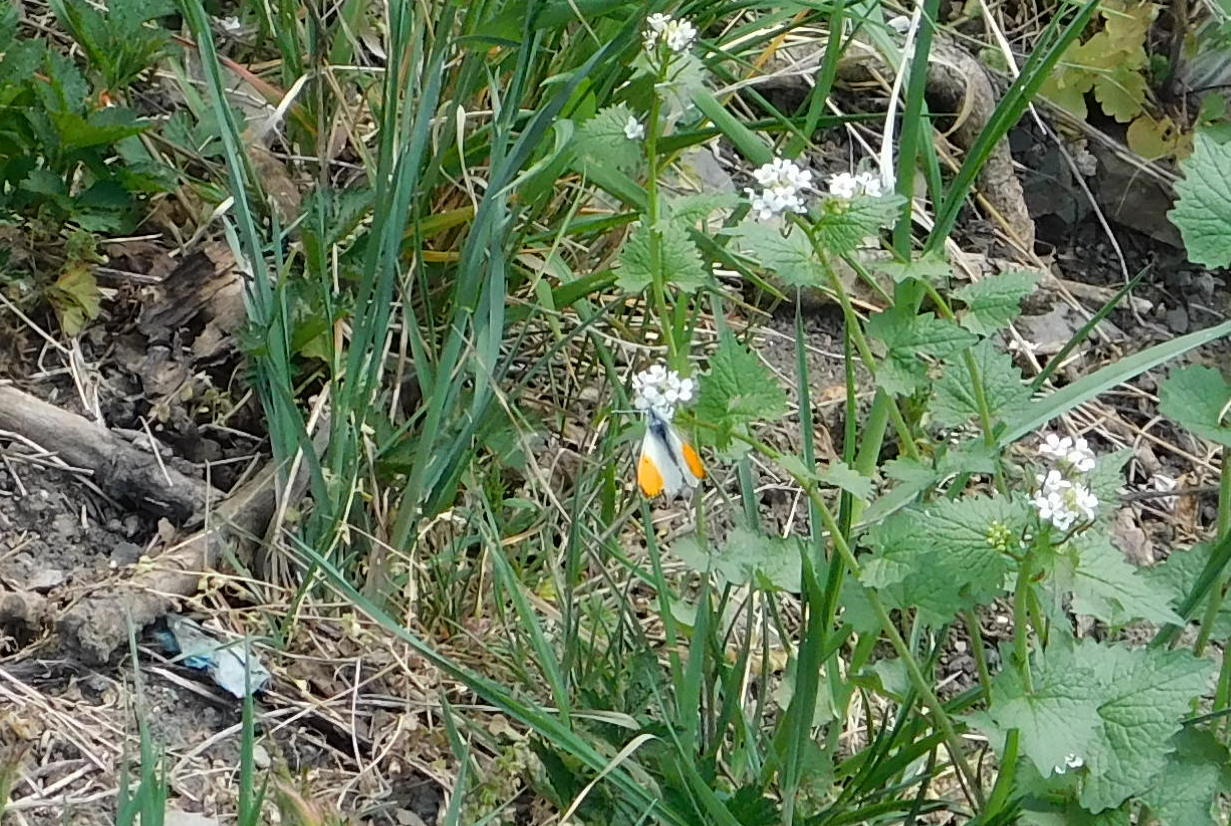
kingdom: Animalia
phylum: Arthropoda
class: Insecta
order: Lepidoptera
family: Pieridae
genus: Anthocharis
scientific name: Anthocharis cardamines
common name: Orange-tip
